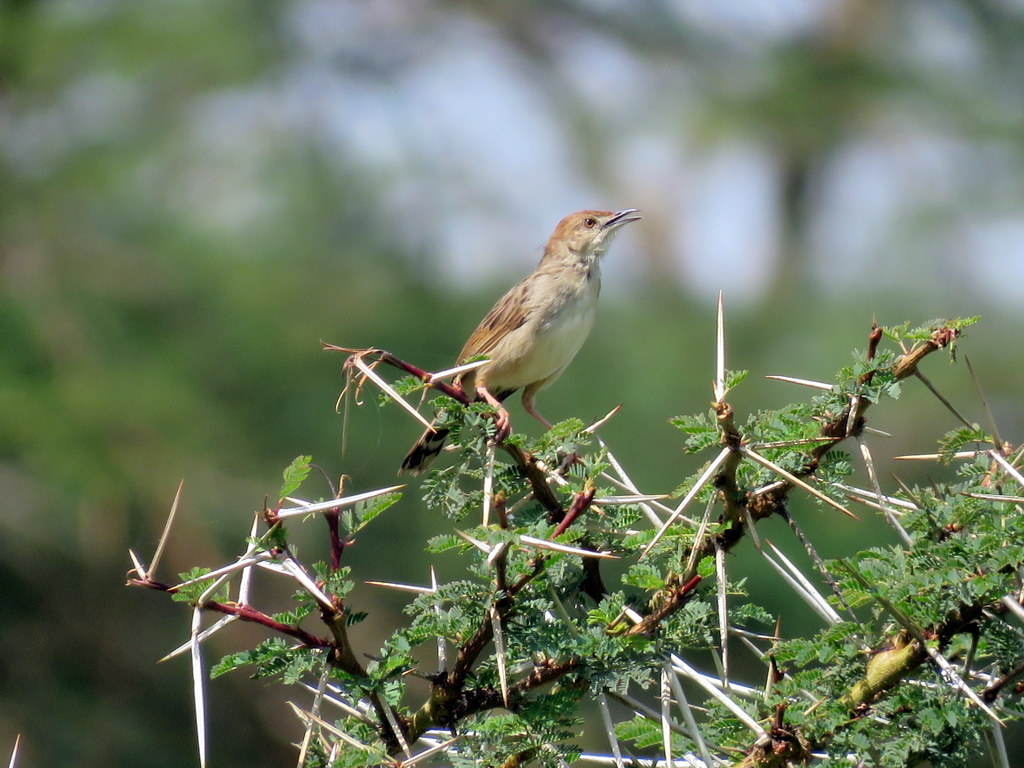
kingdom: Animalia
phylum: Chordata
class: Aves
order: Passeriformes
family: Cisticolidae
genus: Cisticola
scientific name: Cisticola chiniana
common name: Rattling cisticola
